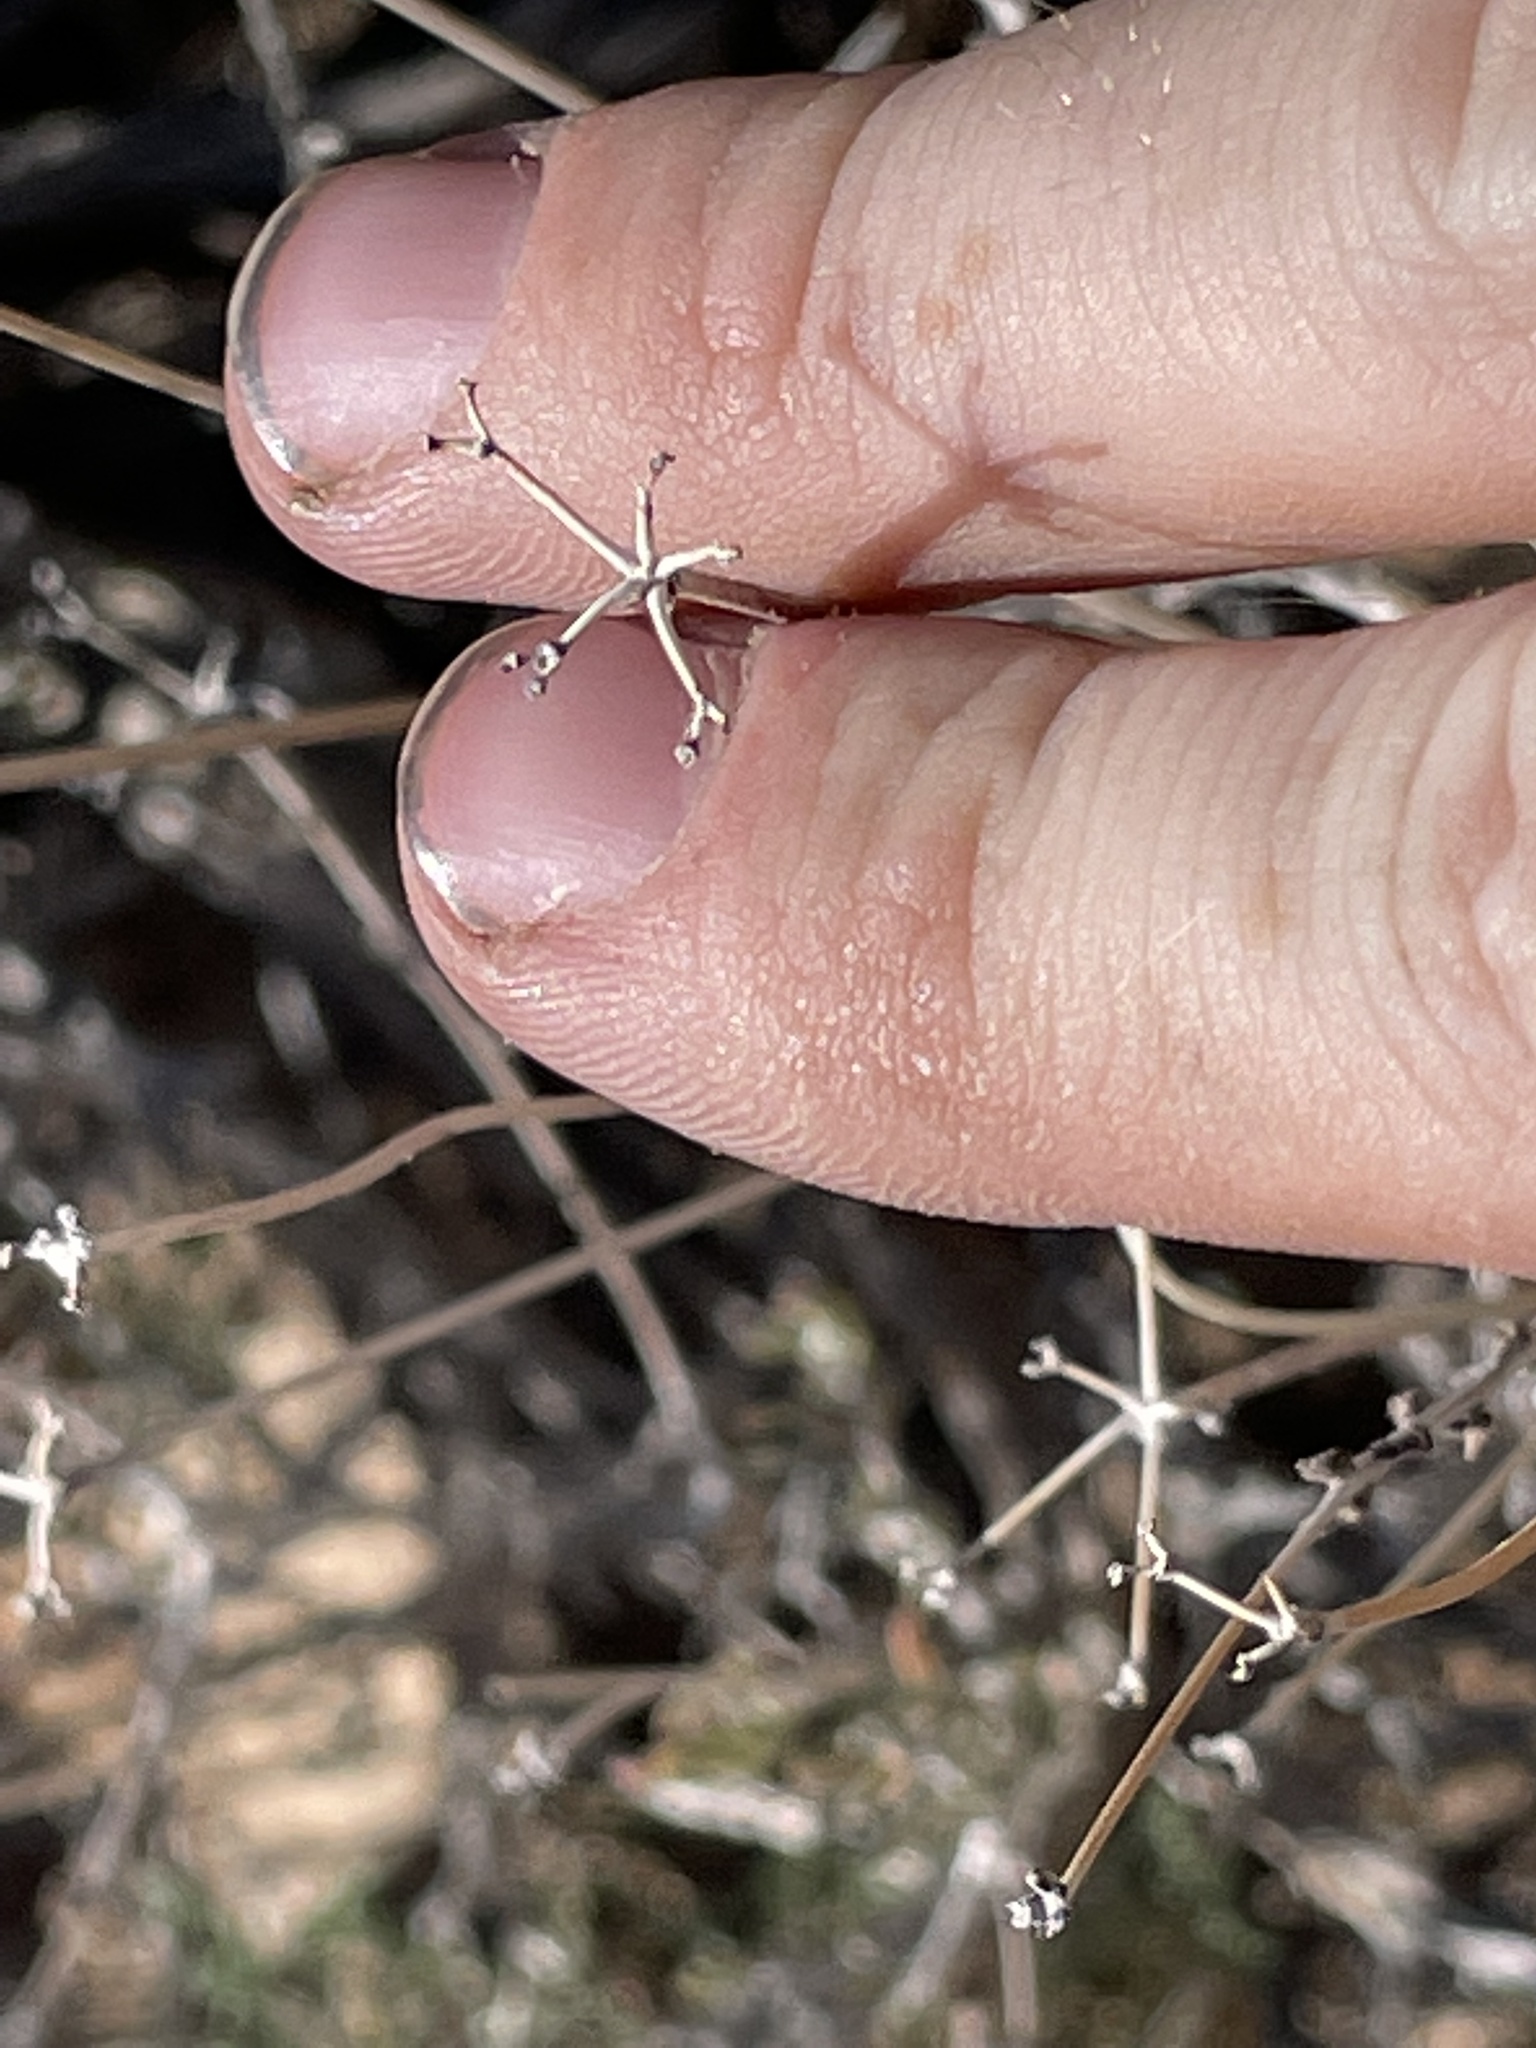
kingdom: Plantae
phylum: Tracheophyta
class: Magnoliopsida
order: Caryophyllales
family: Polygonaceae
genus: Eriogonum
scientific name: Eriogonum fasciculatum
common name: California wild buckwheat
